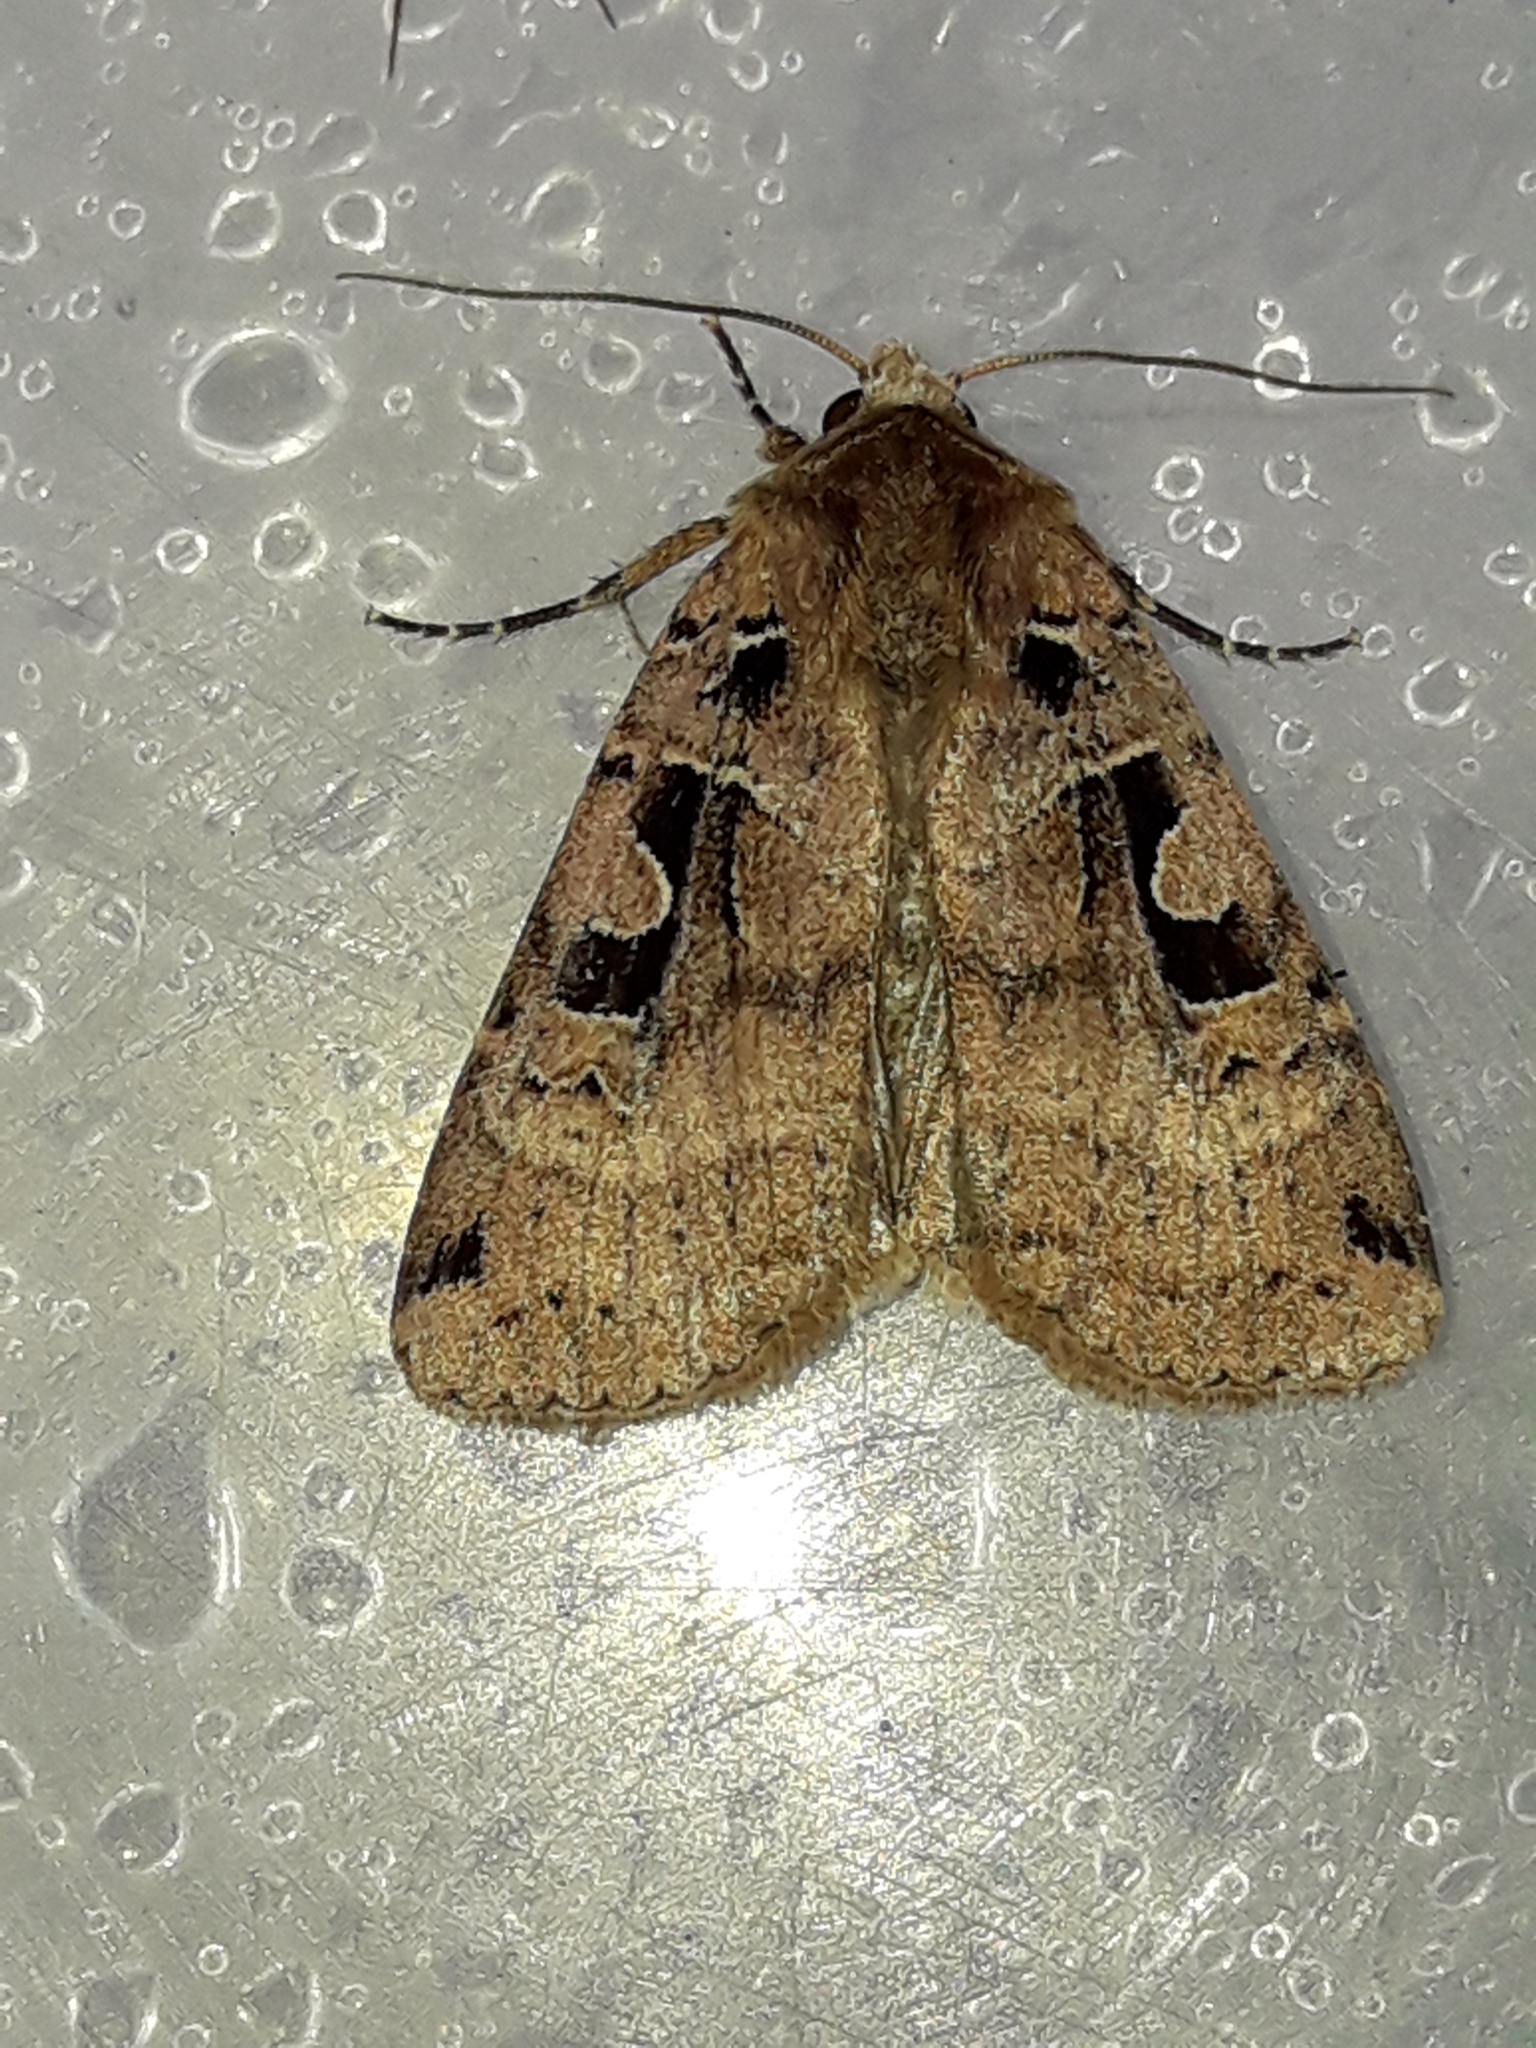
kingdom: Animalia
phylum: Arthropoda
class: Insecta
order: Lepidoptera
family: Noctuidae
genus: Xestia
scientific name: Xestia triangulum
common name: Double square-spot
